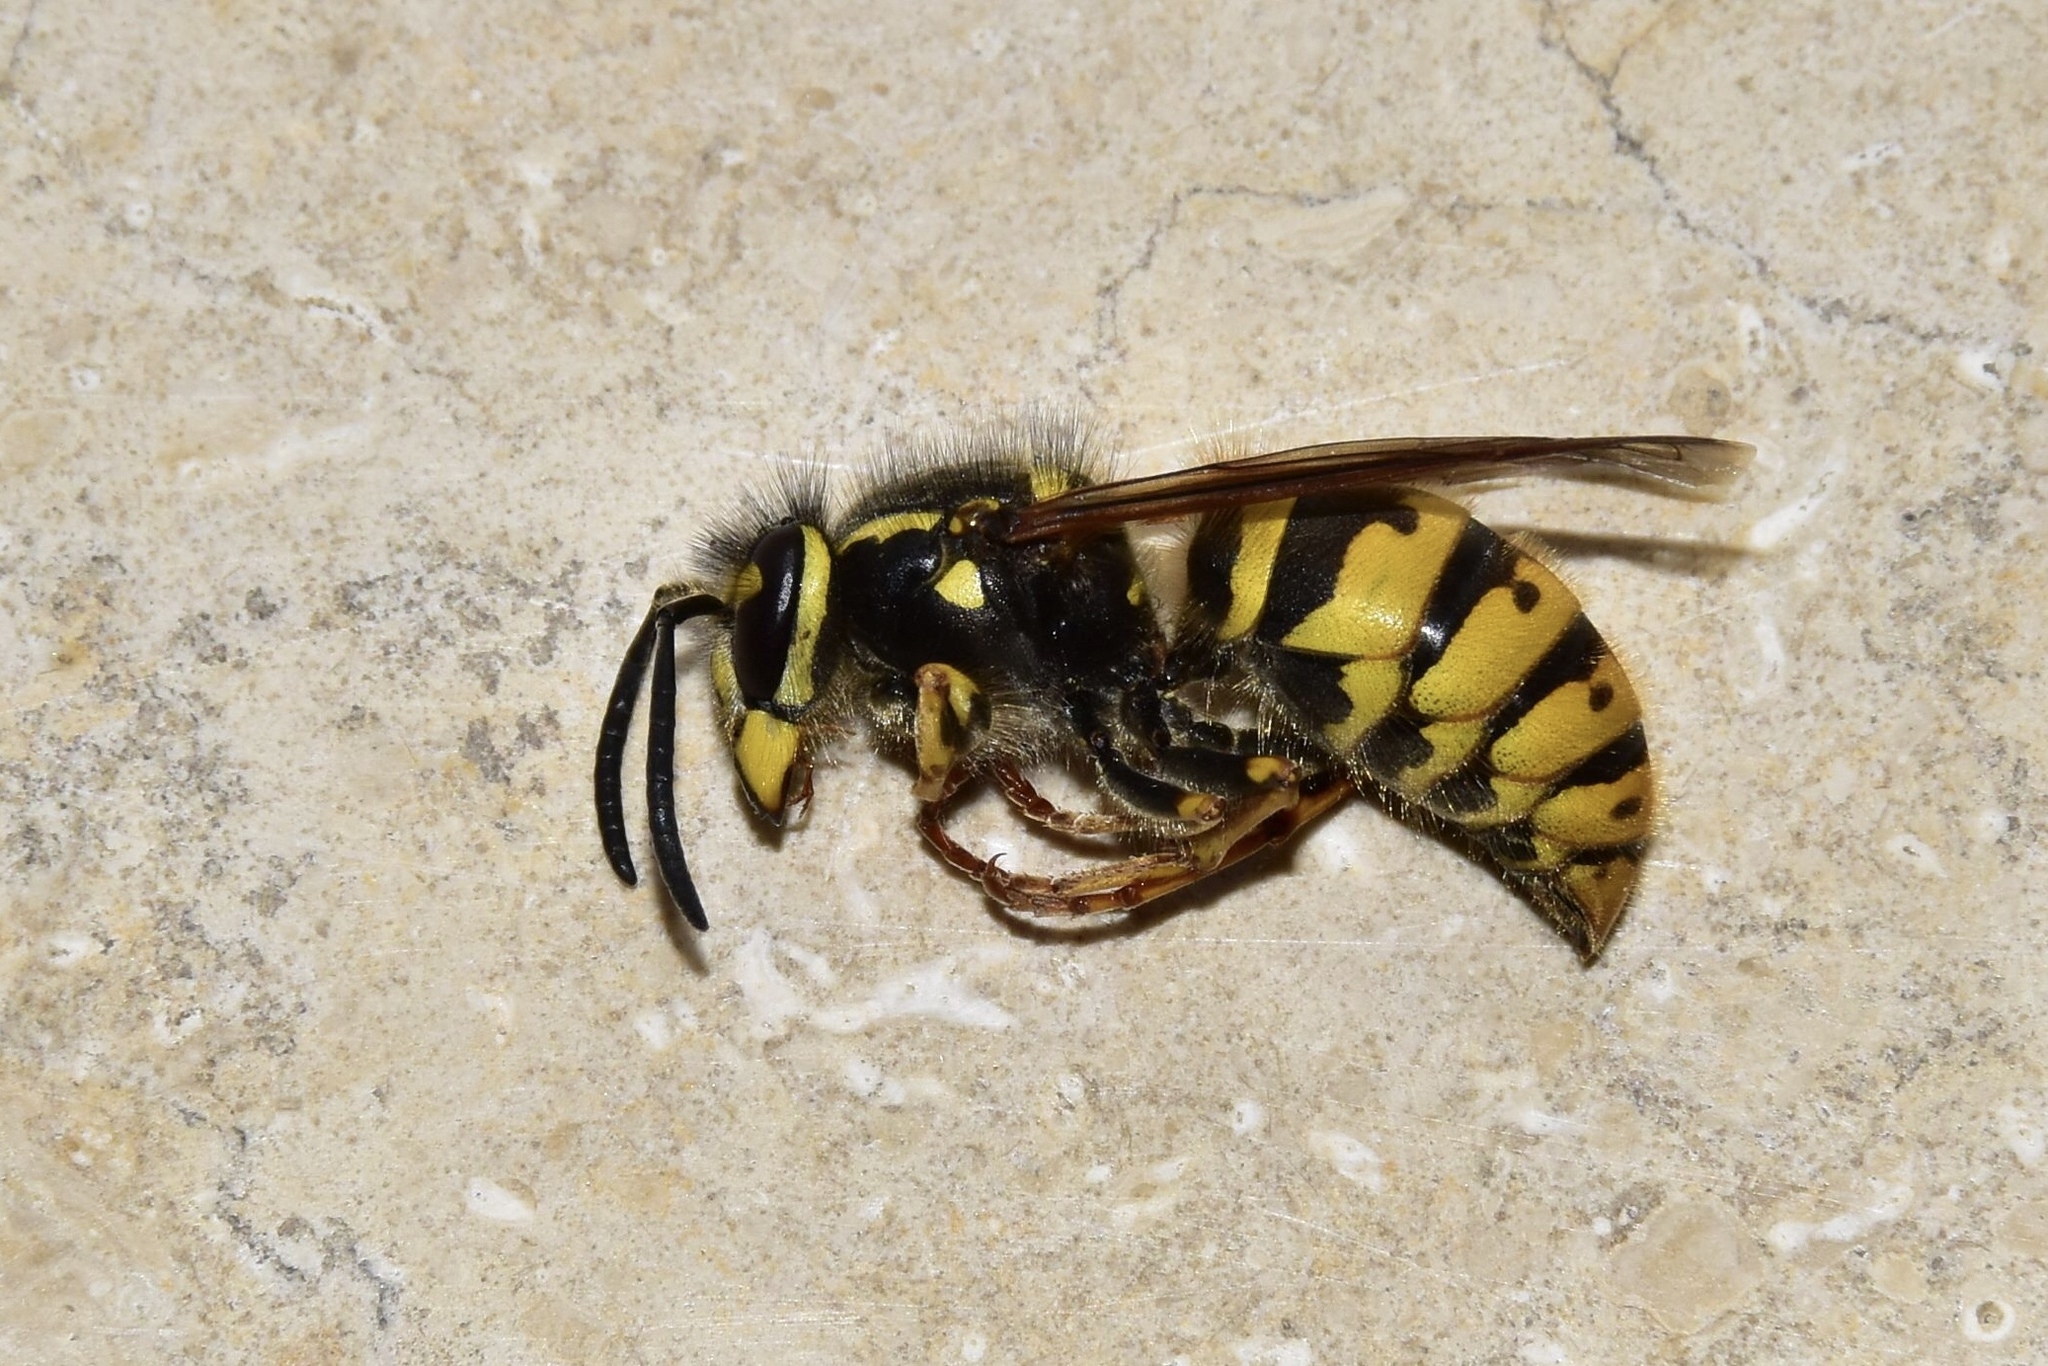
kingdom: Animalia
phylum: Arthropoda
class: Insecta
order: Hymenoptera
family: Vespidae
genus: Vespula
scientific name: Vespula vulgaris
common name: Common wasp
